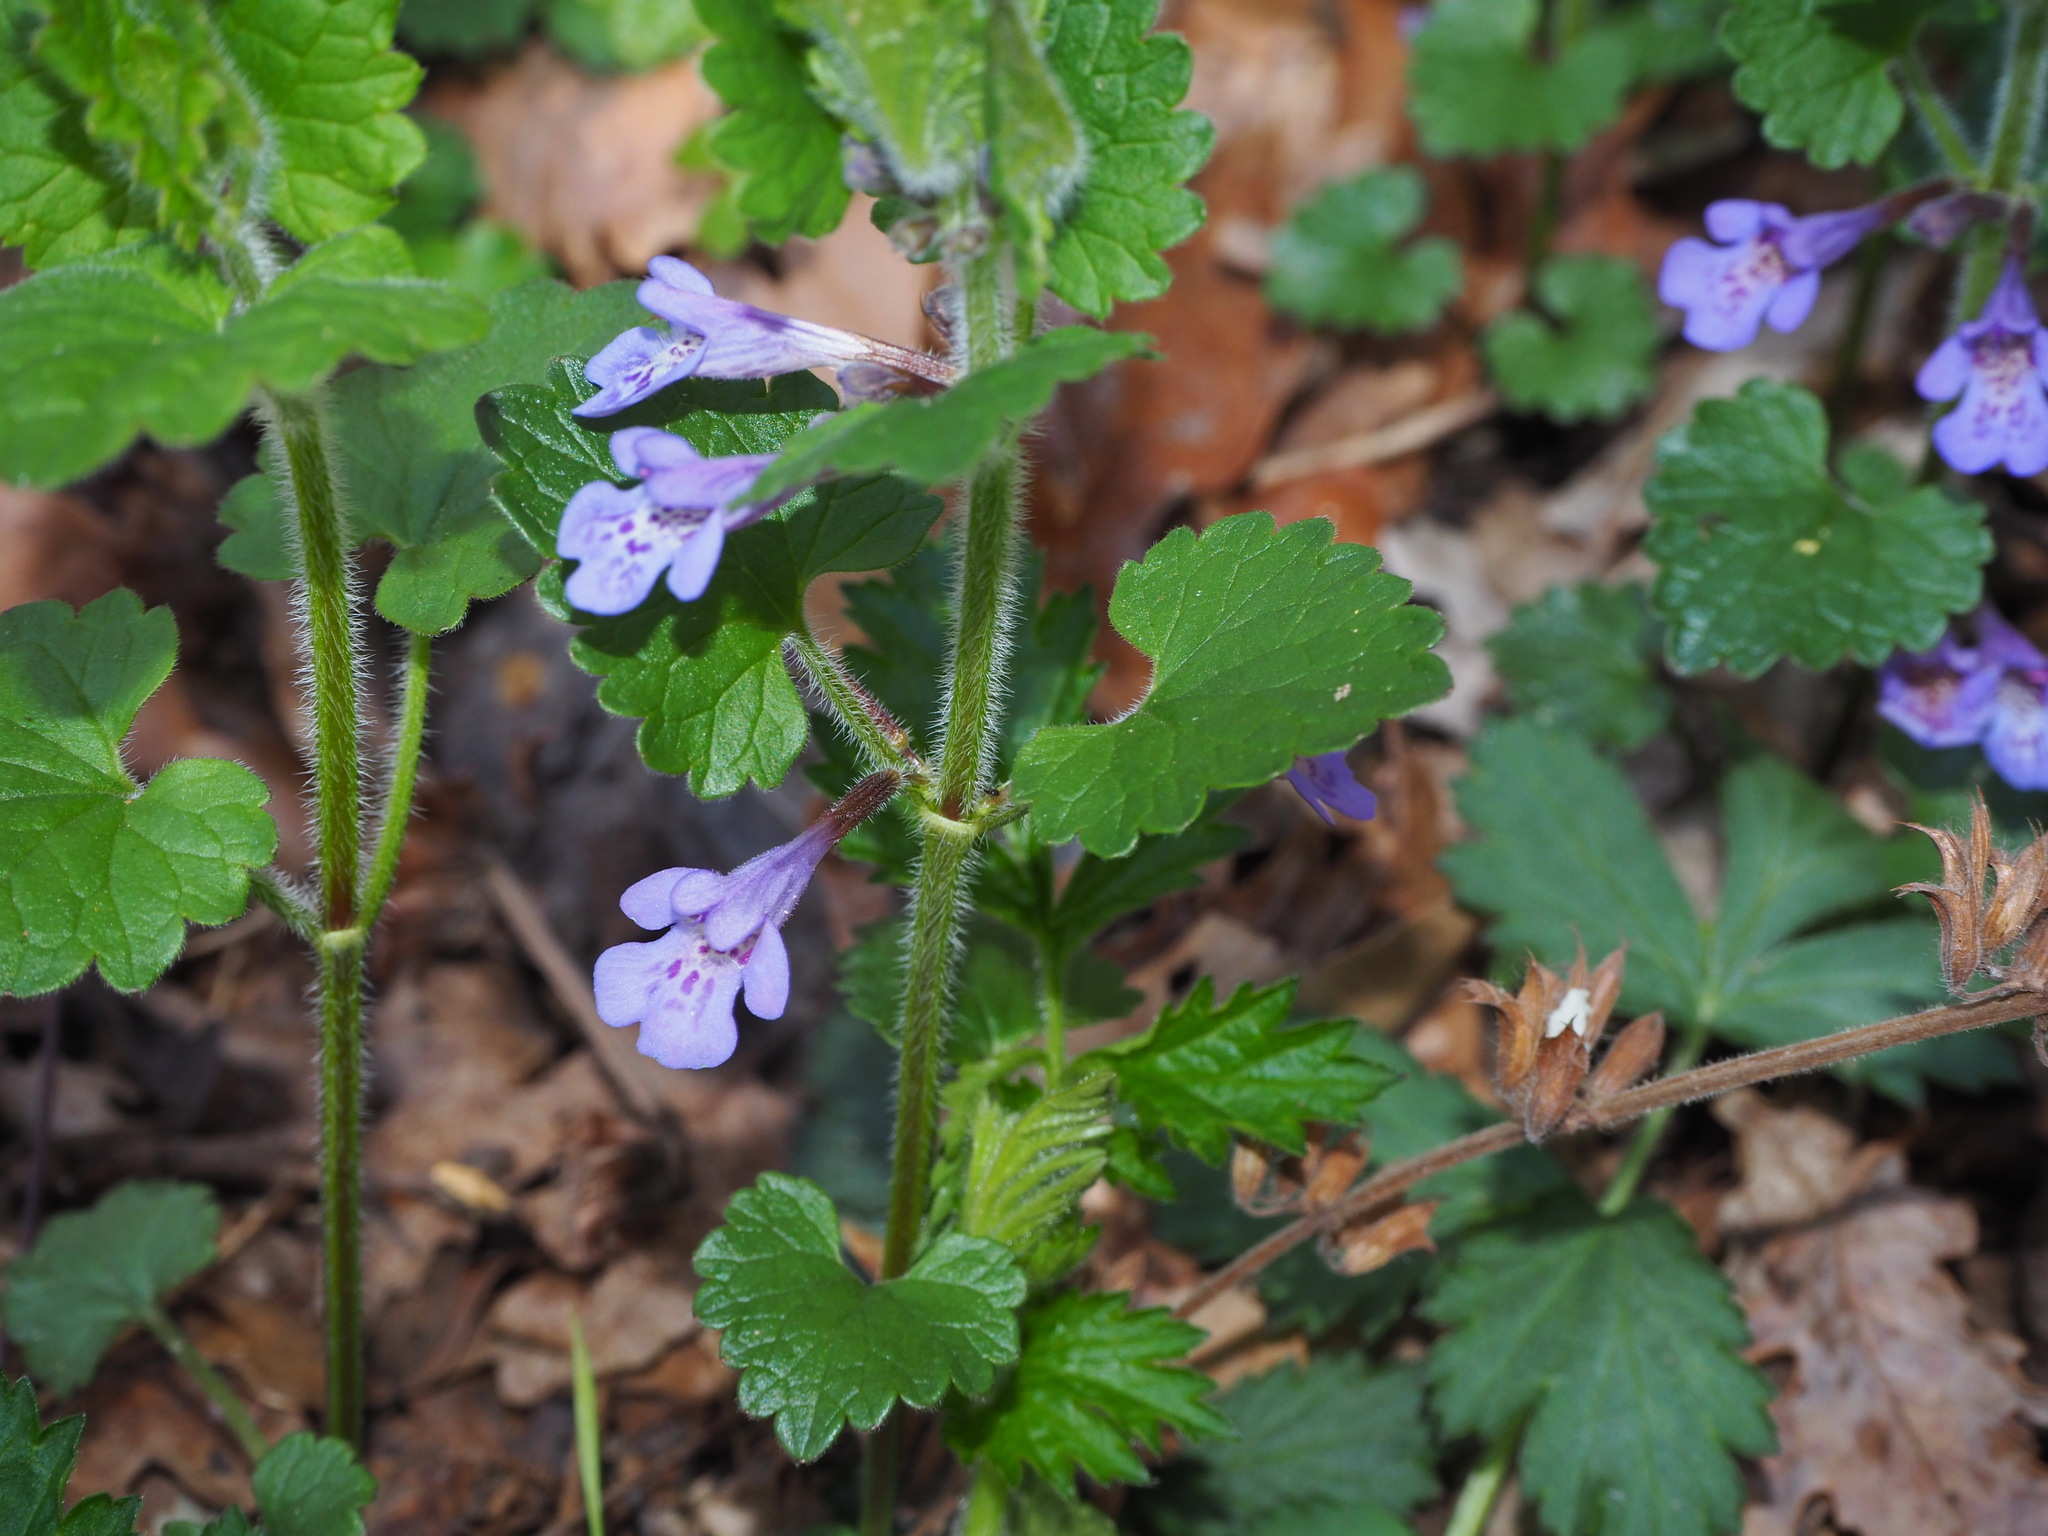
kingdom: Plantae
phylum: Tracheophyta
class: Magnoliopsida
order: Lamiales
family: Lamiaceae
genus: Glechoma
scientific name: Glechoma hederacea
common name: Ground ivy
